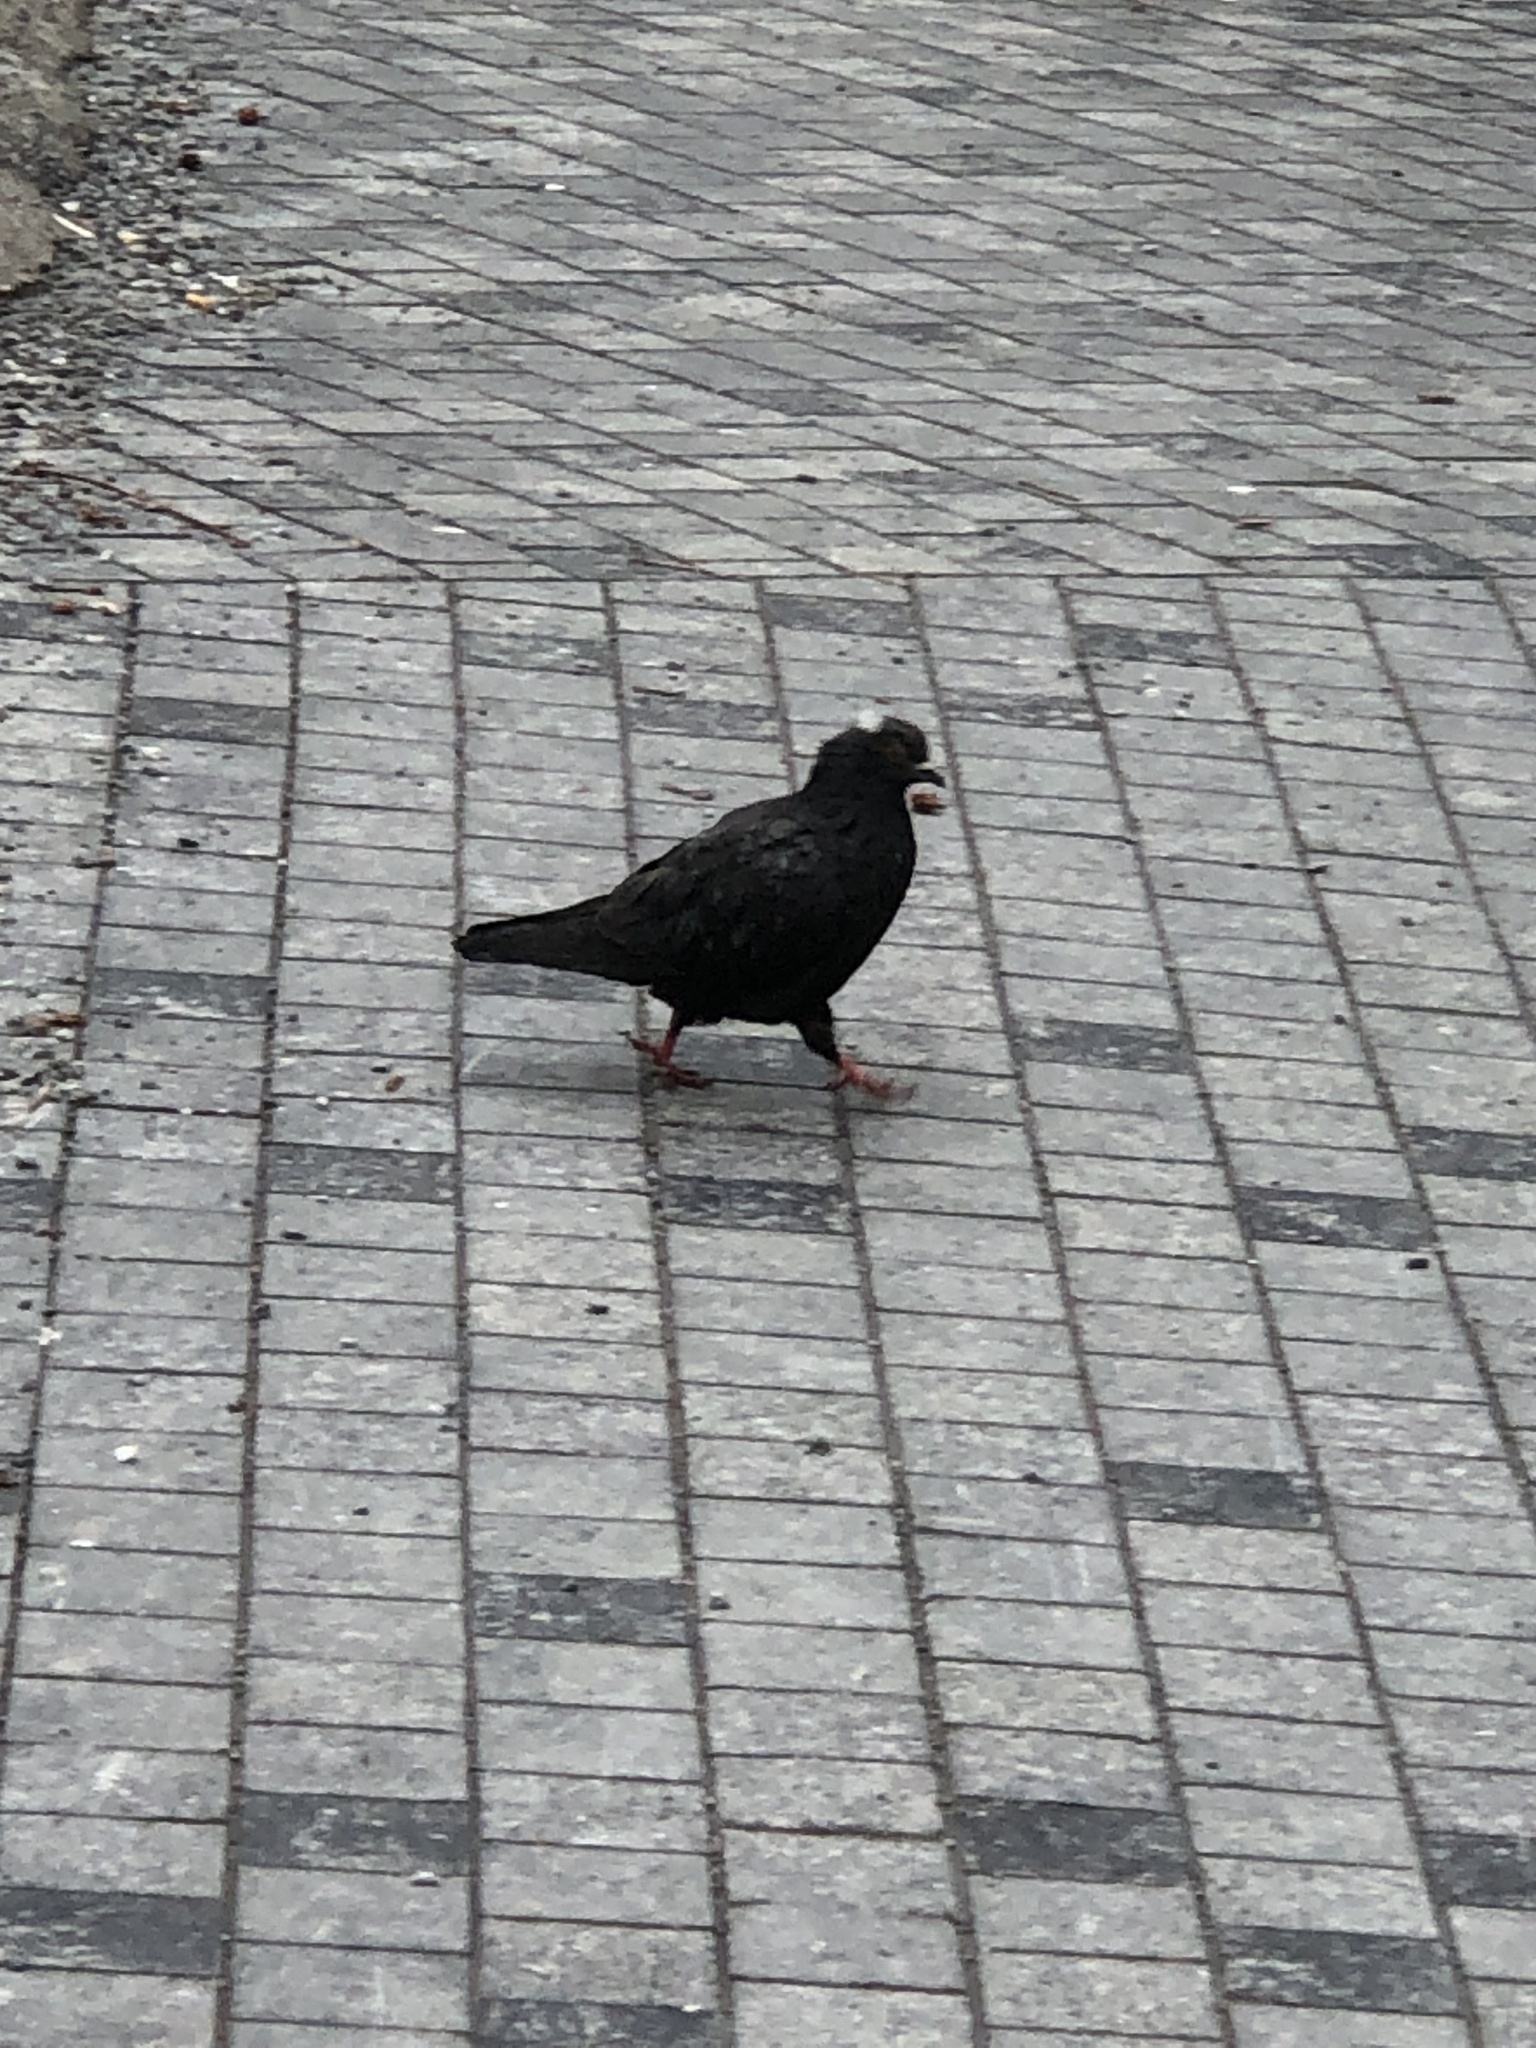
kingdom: Animalia
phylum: Chordata
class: Aves
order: Columbiformes
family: Columbidae
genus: Columba
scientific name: Columba livia
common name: Rock pigeon
